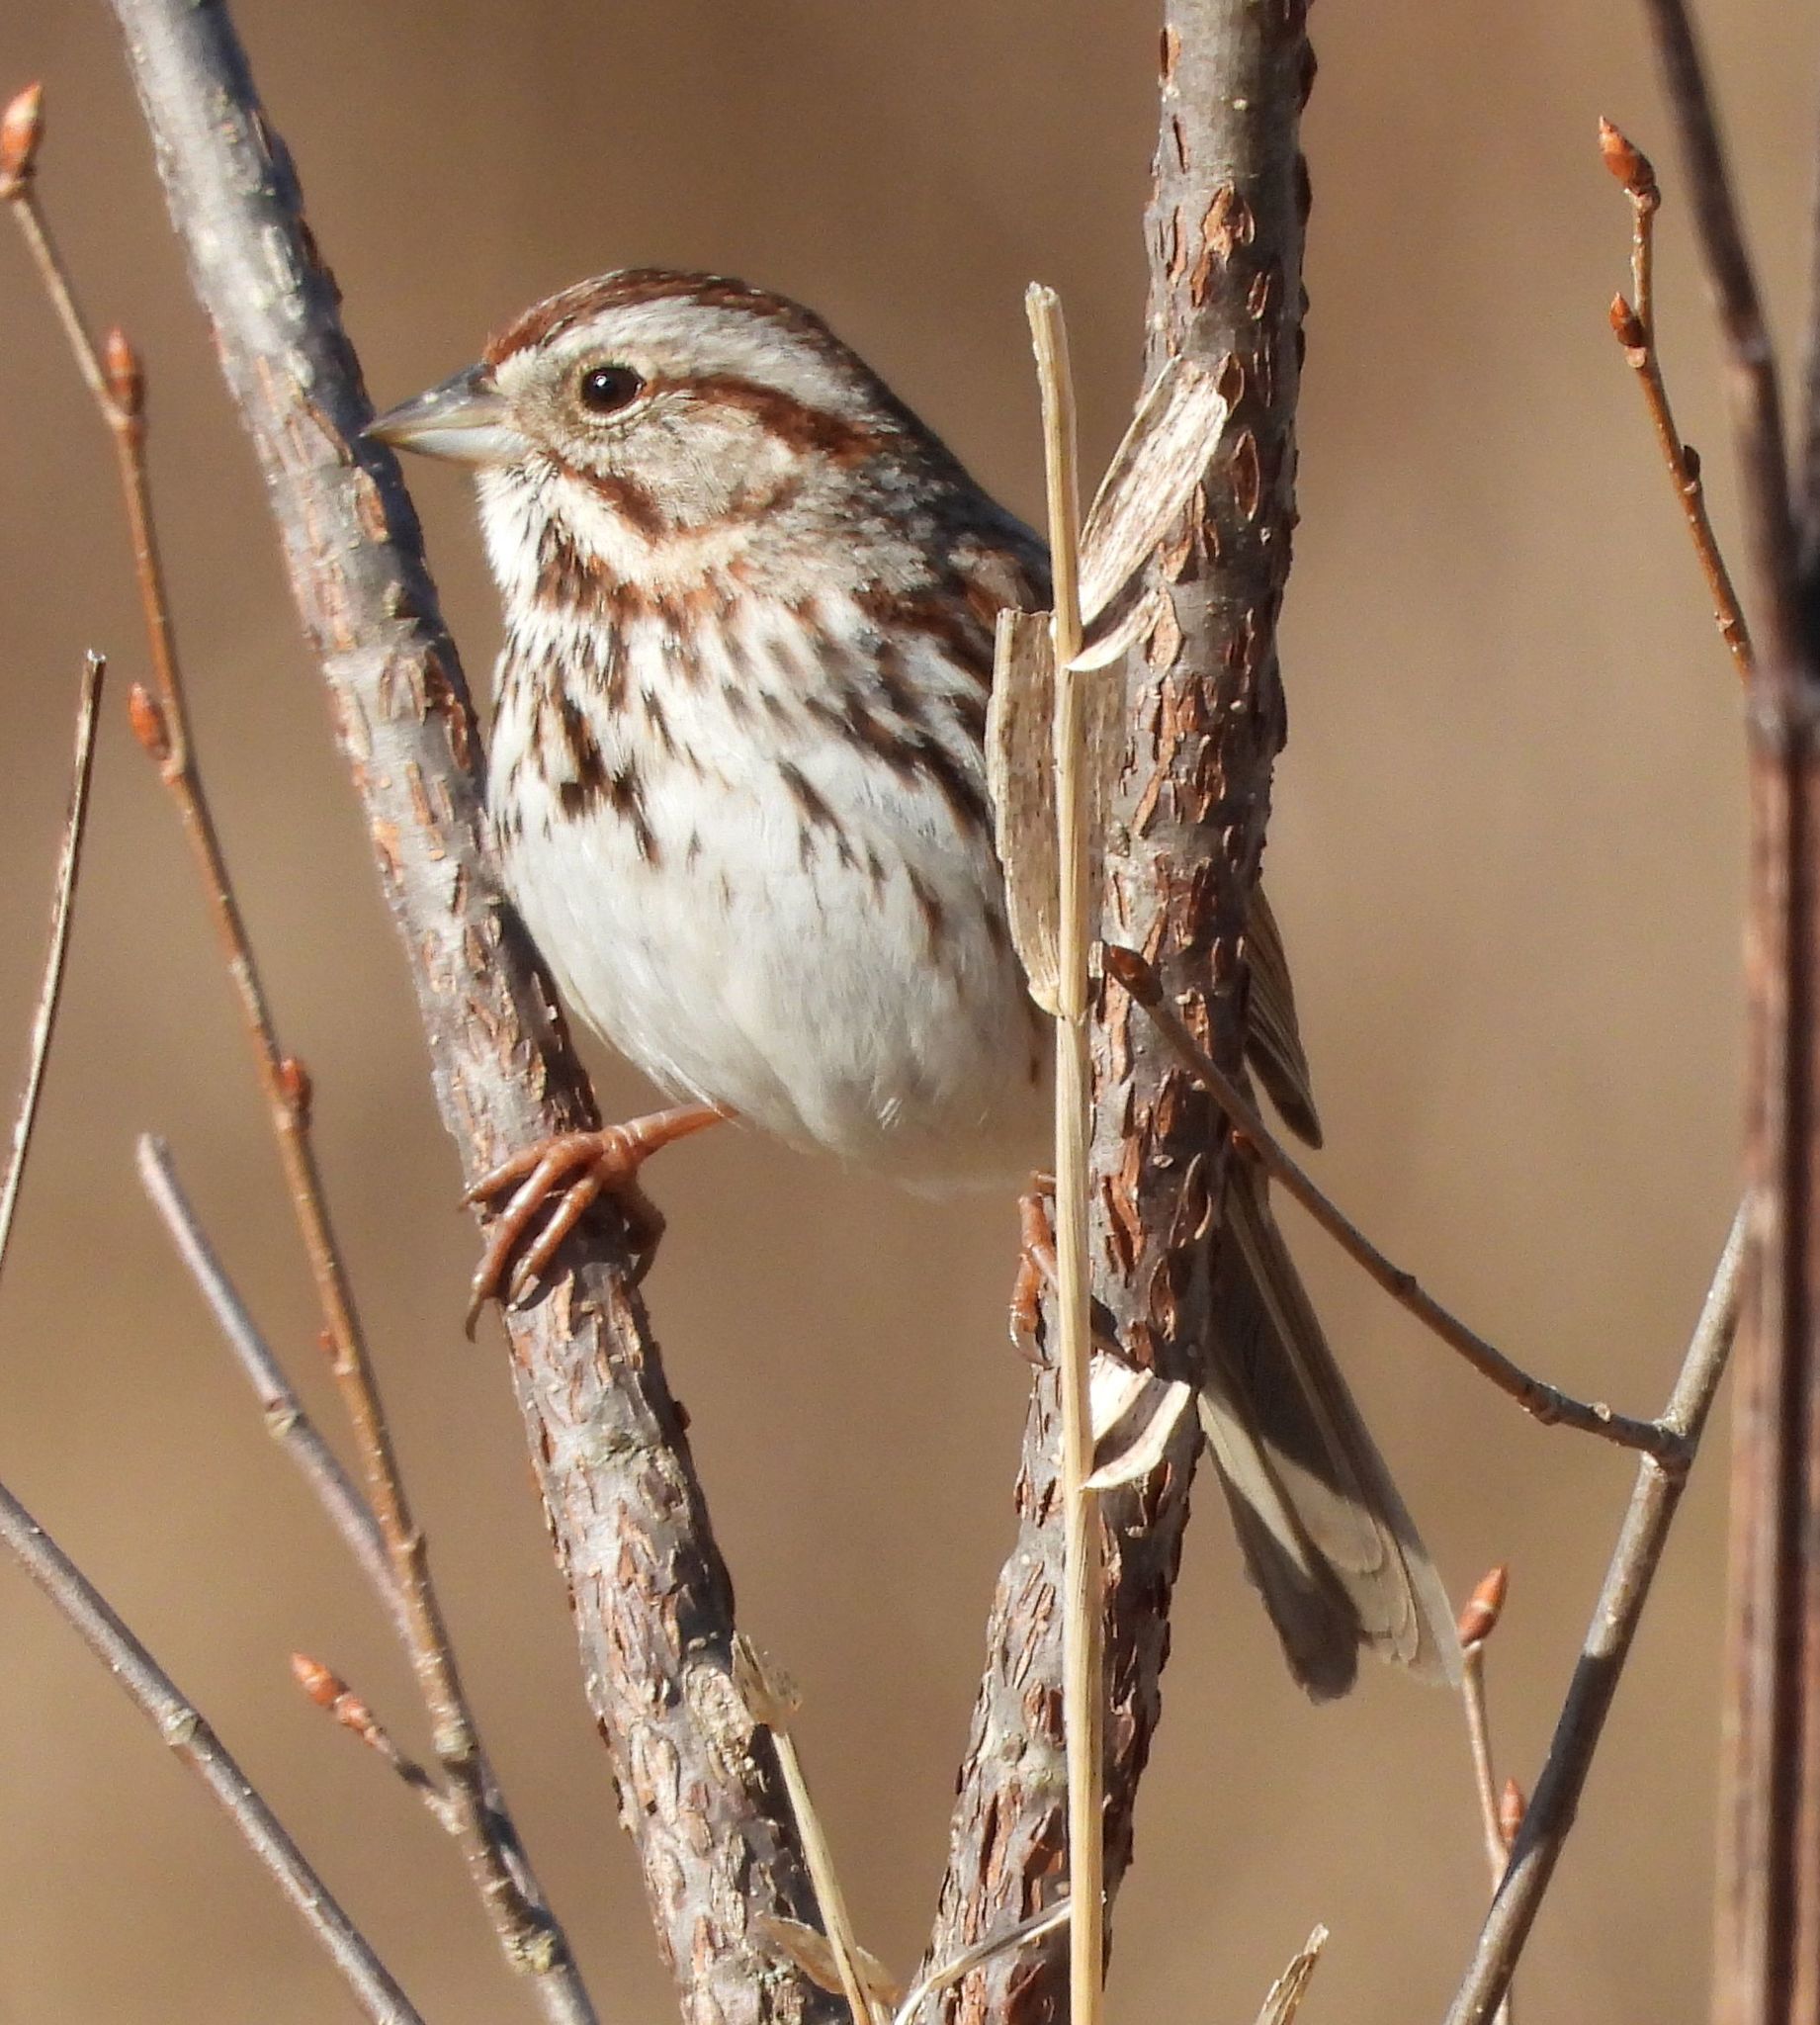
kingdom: Animalia
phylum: Chordata
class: Aves
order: Passeriformes
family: Passerellidae
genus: Melospiza
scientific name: Melospiza melodia
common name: Song sparrow
